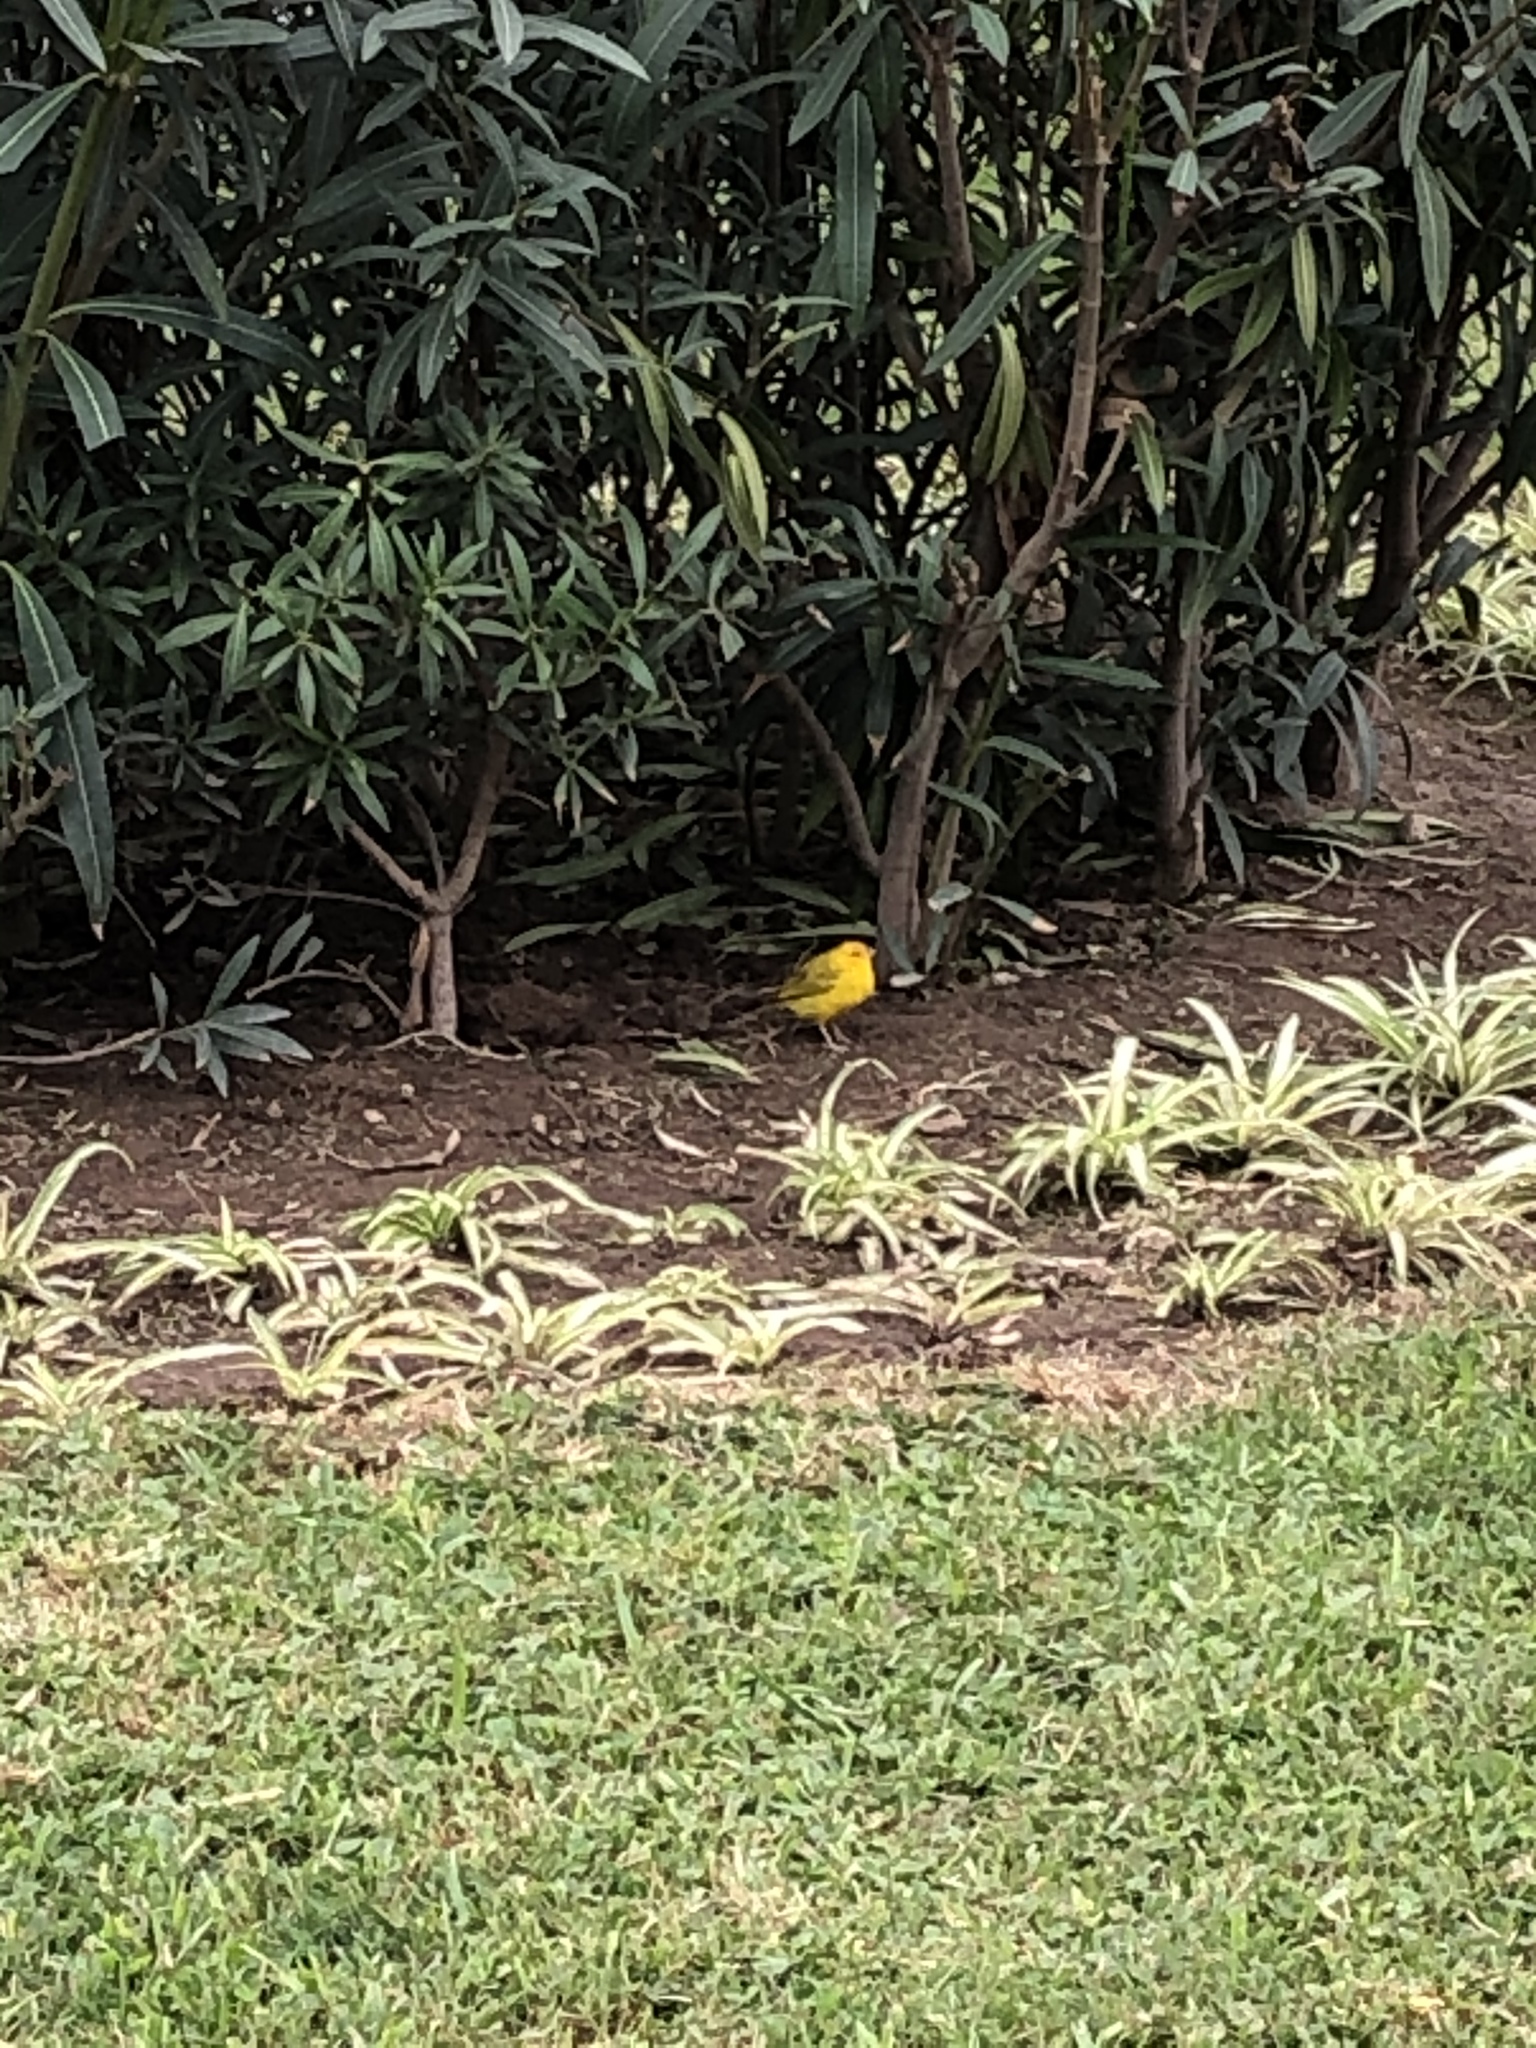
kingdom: Animalia
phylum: Chordata
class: Aves
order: Passeriformes
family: Thraupidae
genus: Sicalis
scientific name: Sicalis flaveola
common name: Saffron finch
